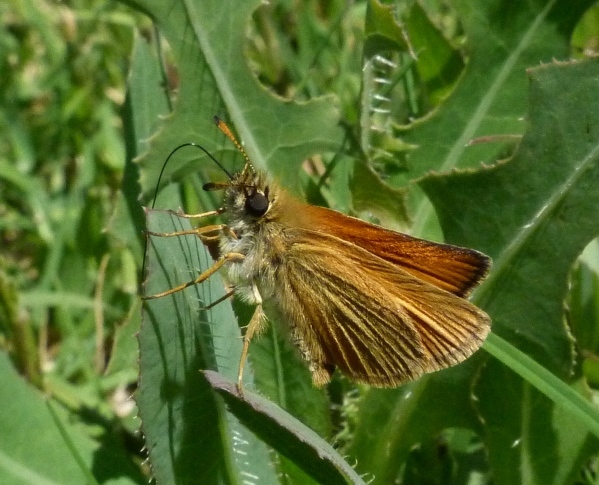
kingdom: Animalia
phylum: Arthropoda
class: Insecta
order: Lepidoptera
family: Hesperiidae
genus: Thymelicus
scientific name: Thymelicus lineola
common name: Essex skipper
